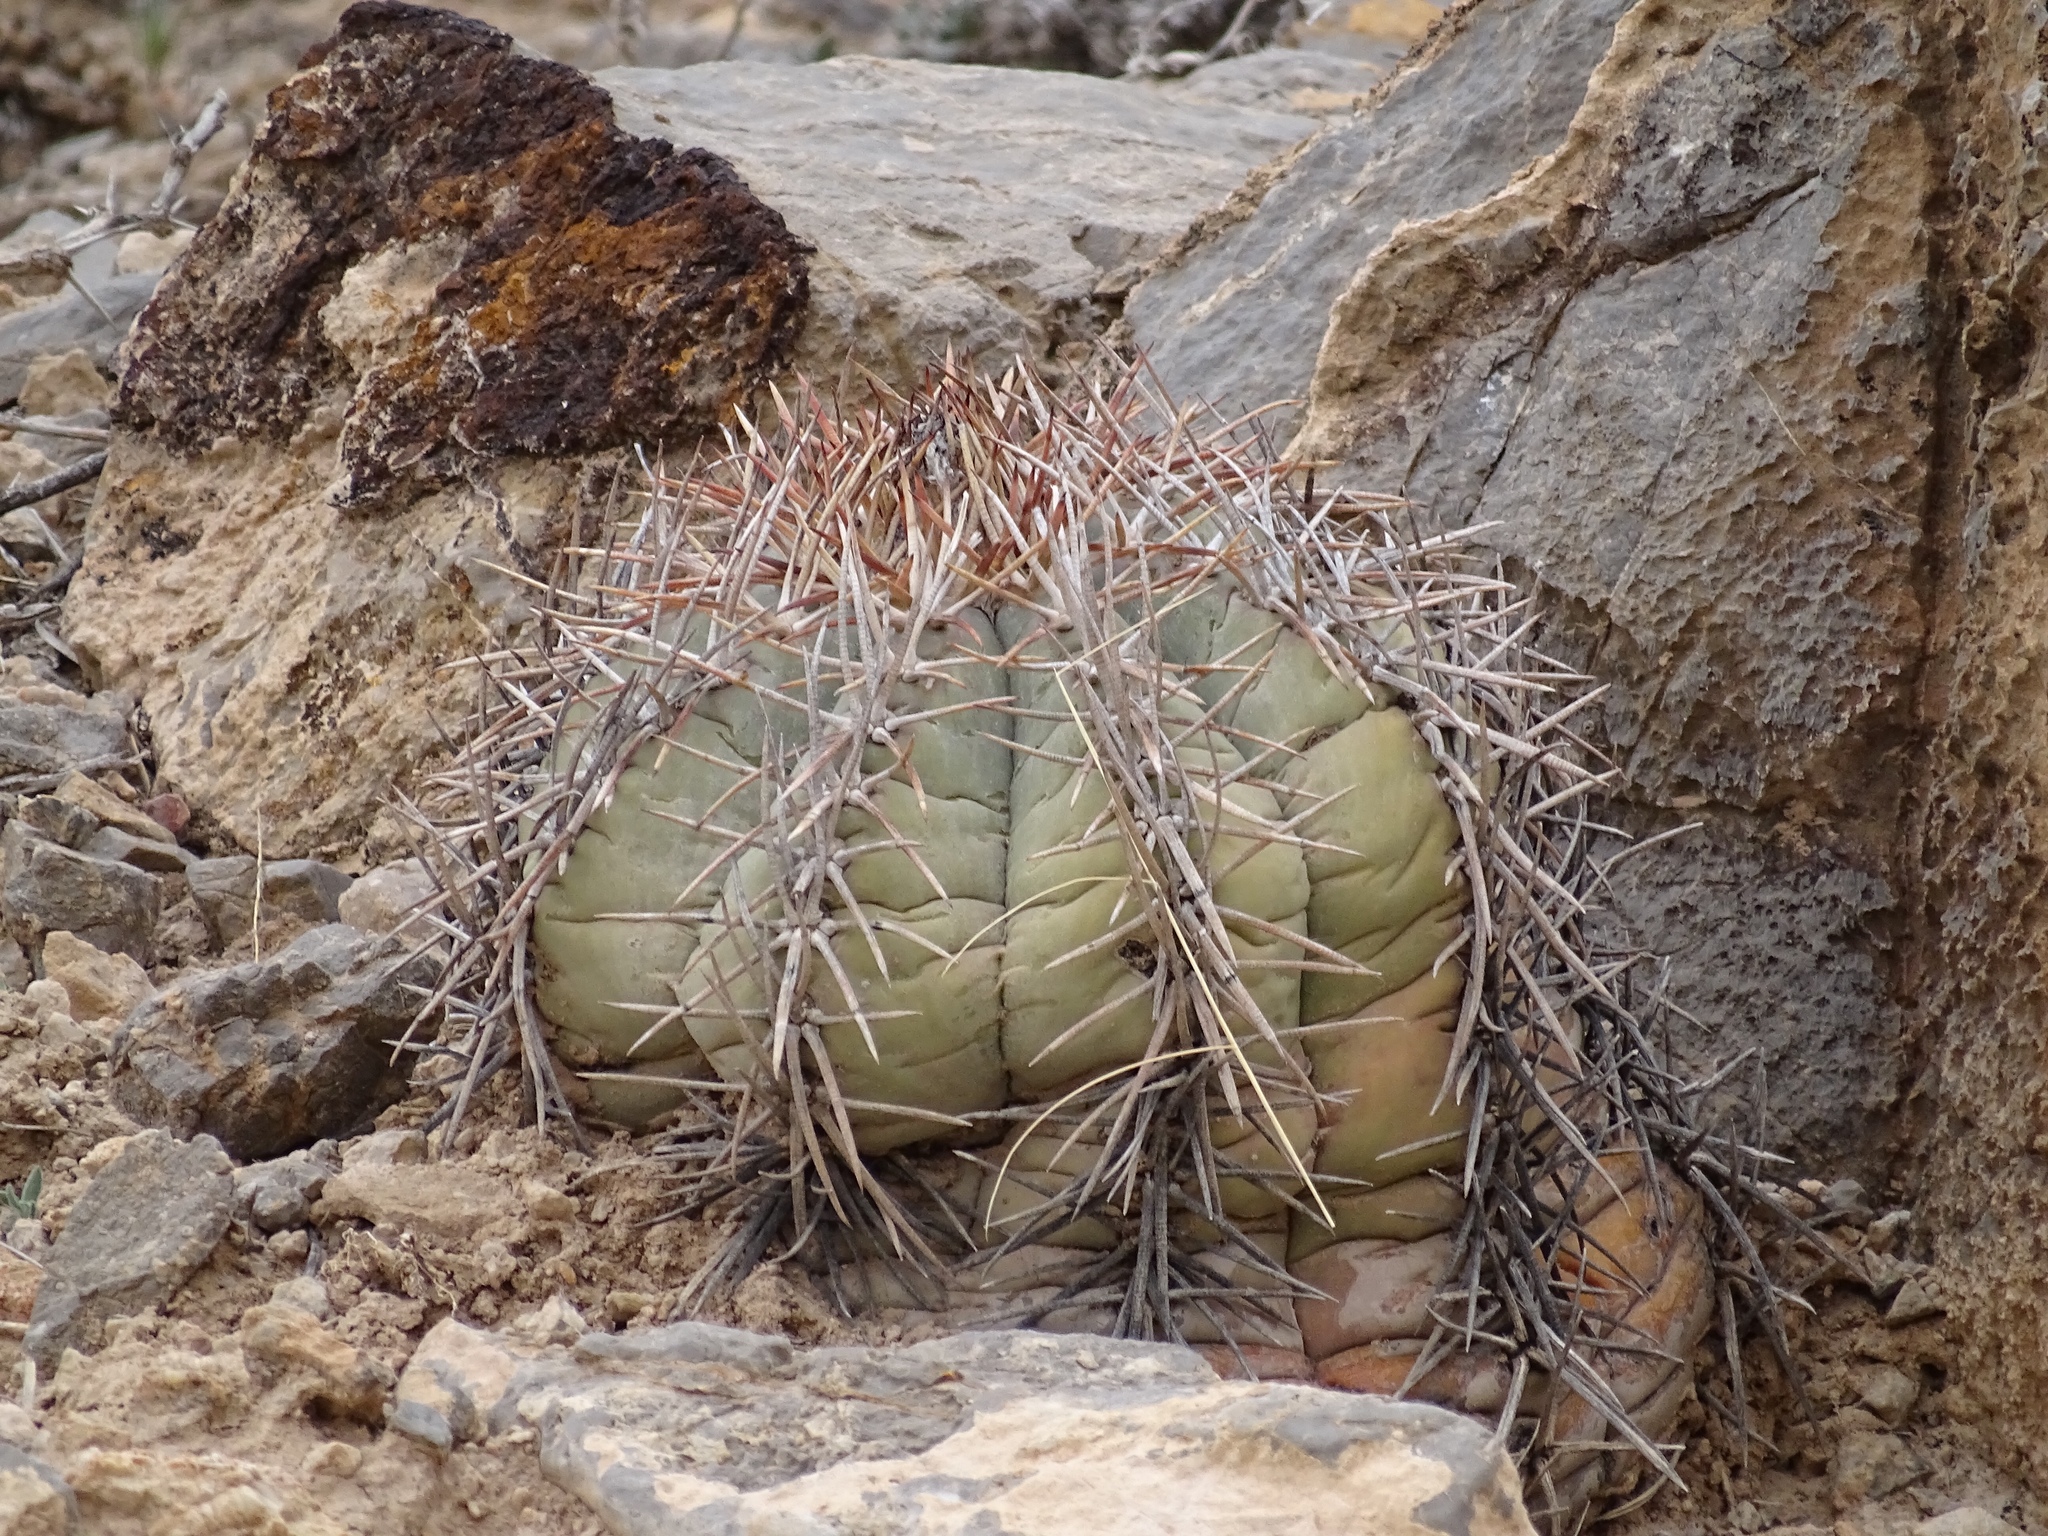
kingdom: Plantae
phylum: Tracheophyta
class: Magnoliopsida
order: Caryophyllales
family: Cactaceae
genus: Echinocactus
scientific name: Echinocactus horizonthalonius
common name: Devilshead
